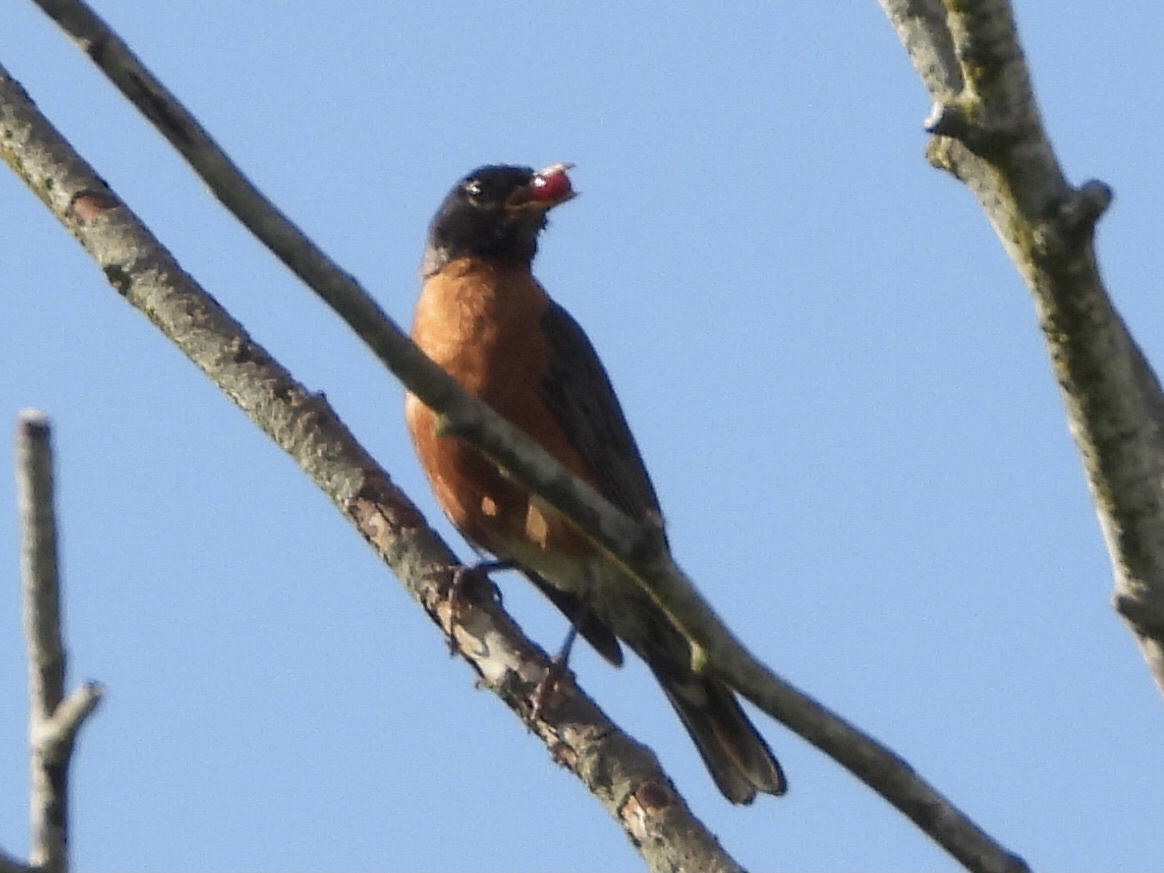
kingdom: Animalia
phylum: Chordata
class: Aves
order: Passeriformes
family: Turdidae
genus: Turdus
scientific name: Turdus migratorius
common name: American robin
